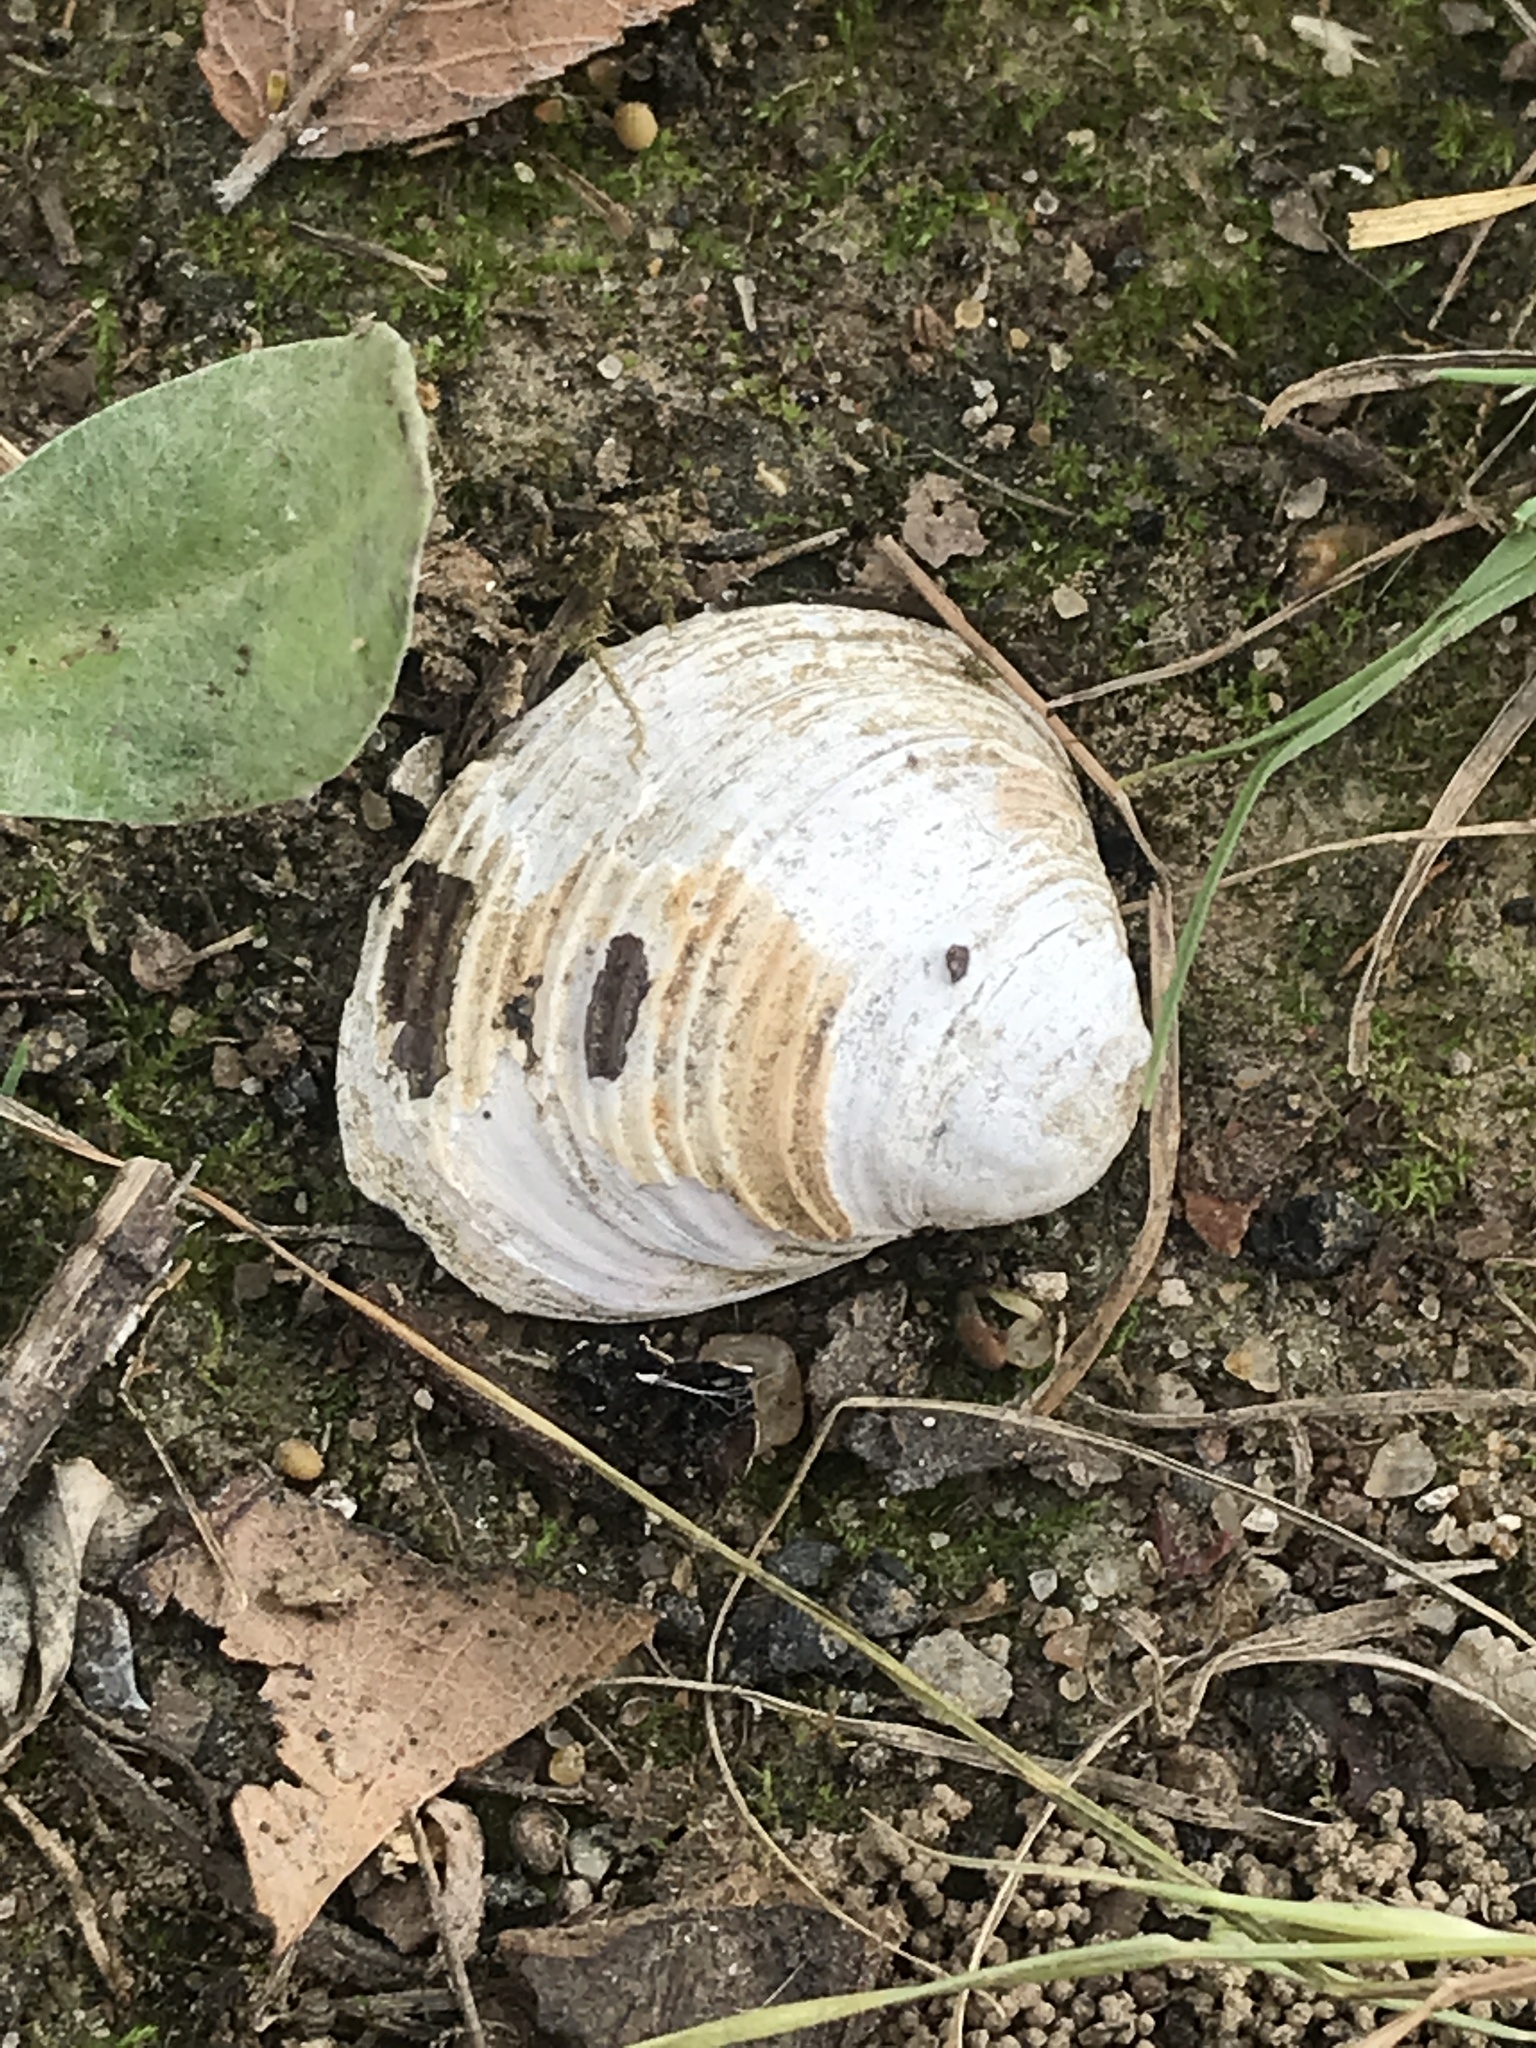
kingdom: Animalia
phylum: Mollusca
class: Bivalvia
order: Venerida
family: Cyrenidae
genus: Corbicula
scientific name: Corbicula fluminea
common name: Asian clam
